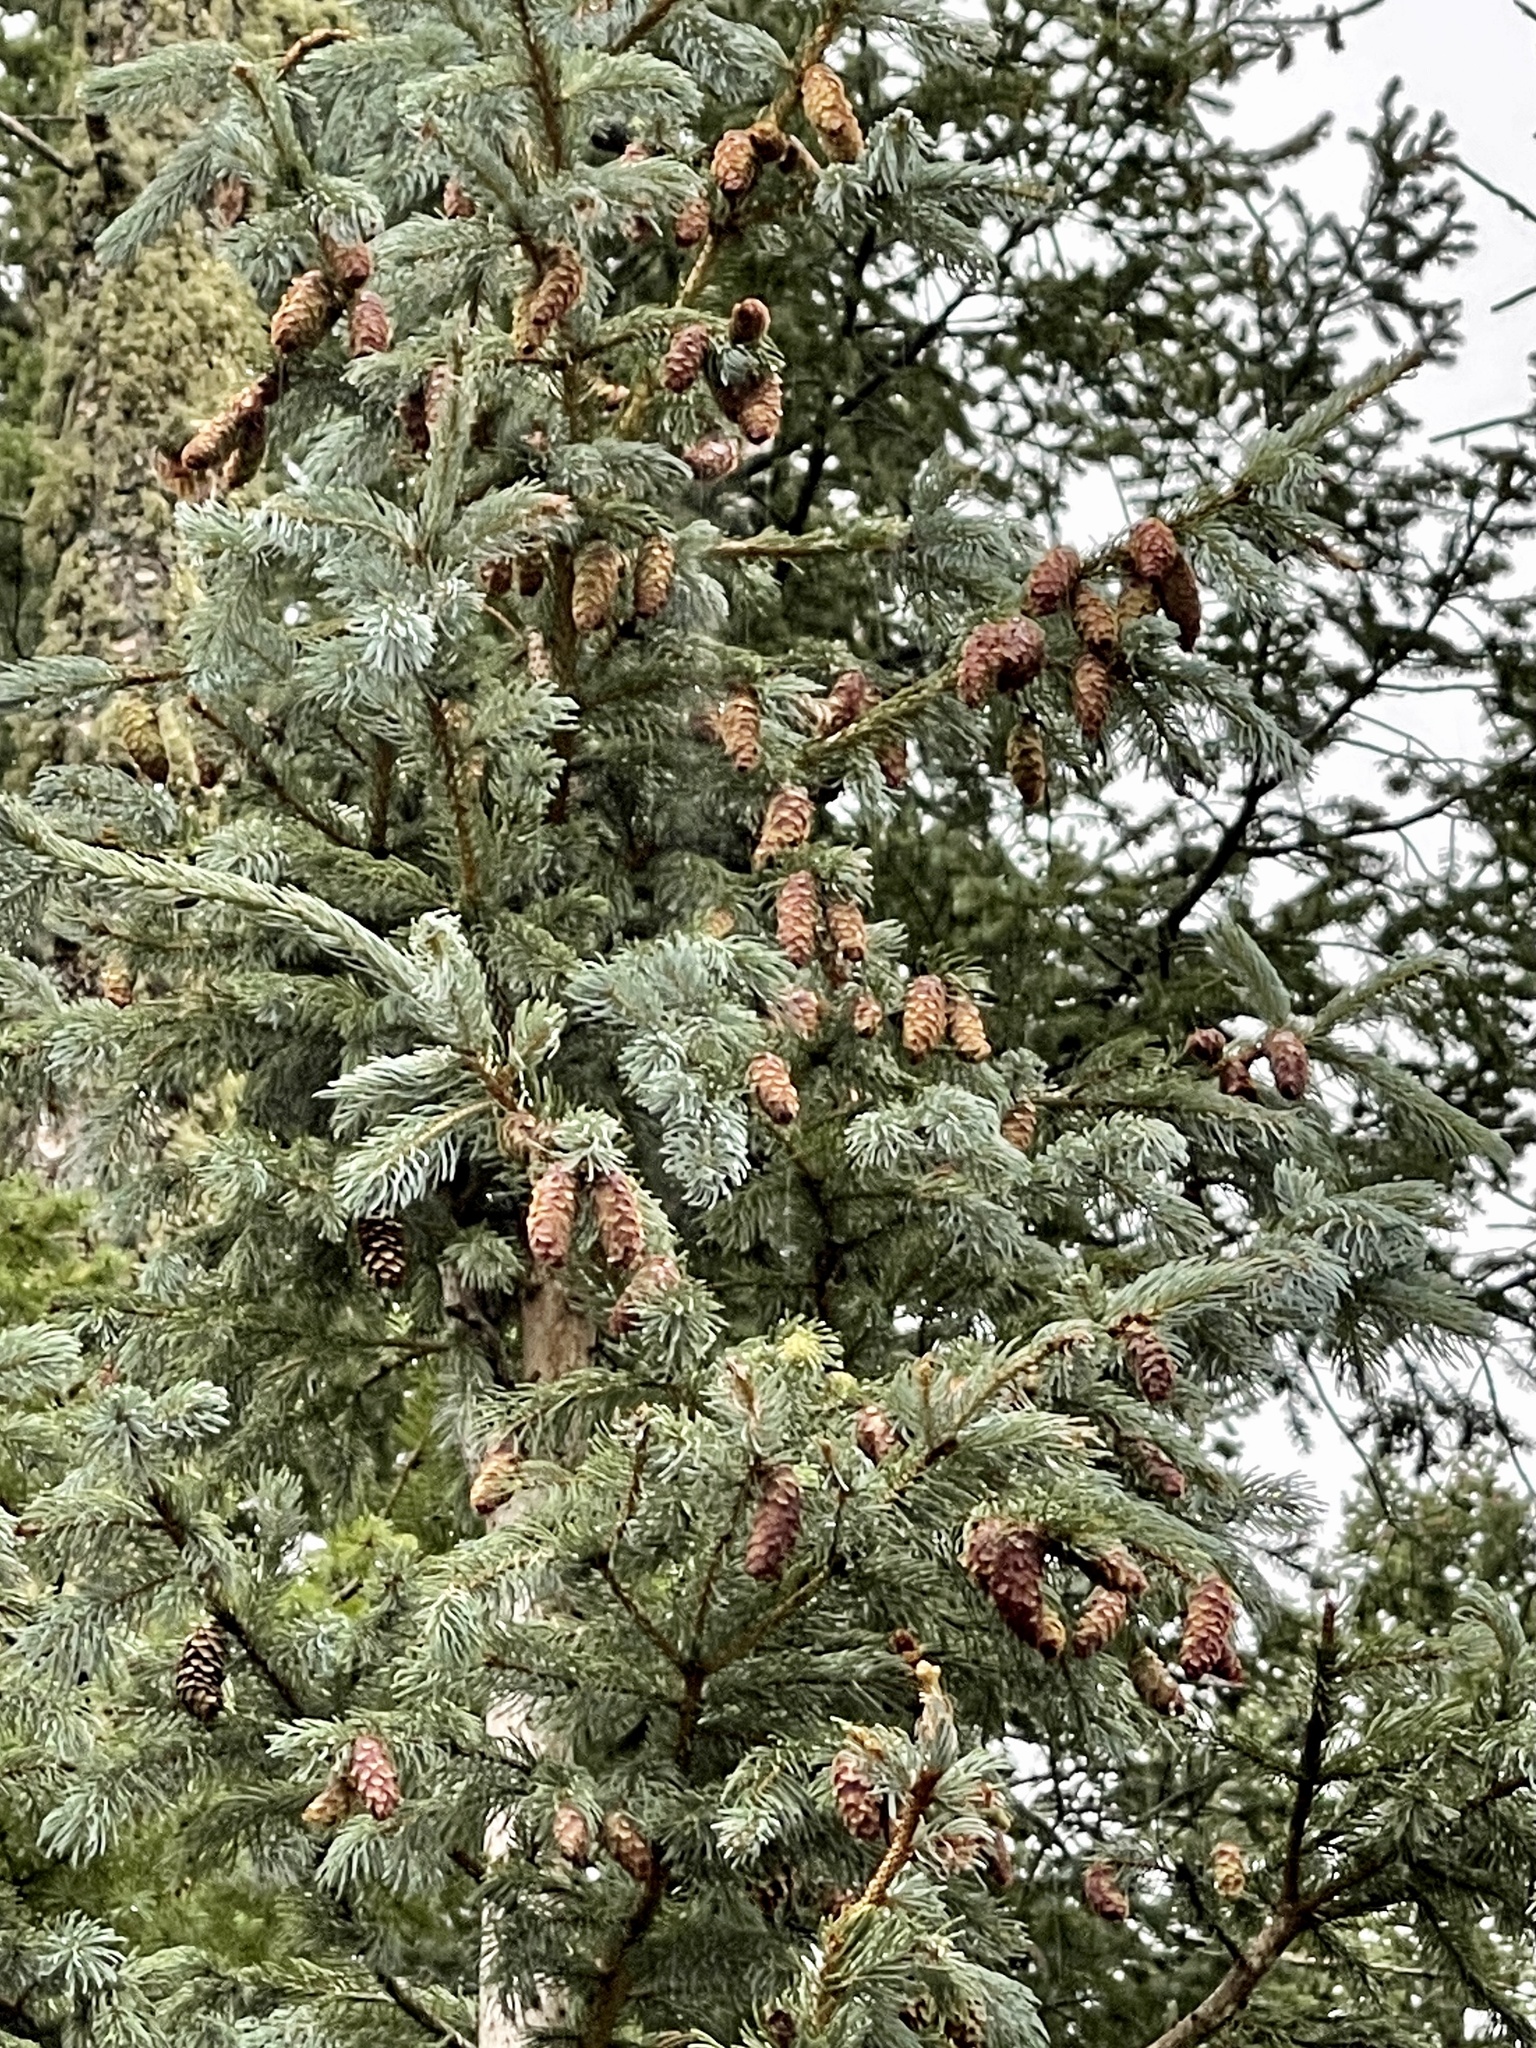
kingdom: Plantae
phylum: Tracheophyta
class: Pinopsida
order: Pinales
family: Pinaceae
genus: Picea
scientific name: Picea engelmannii
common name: Engelmann spruce
